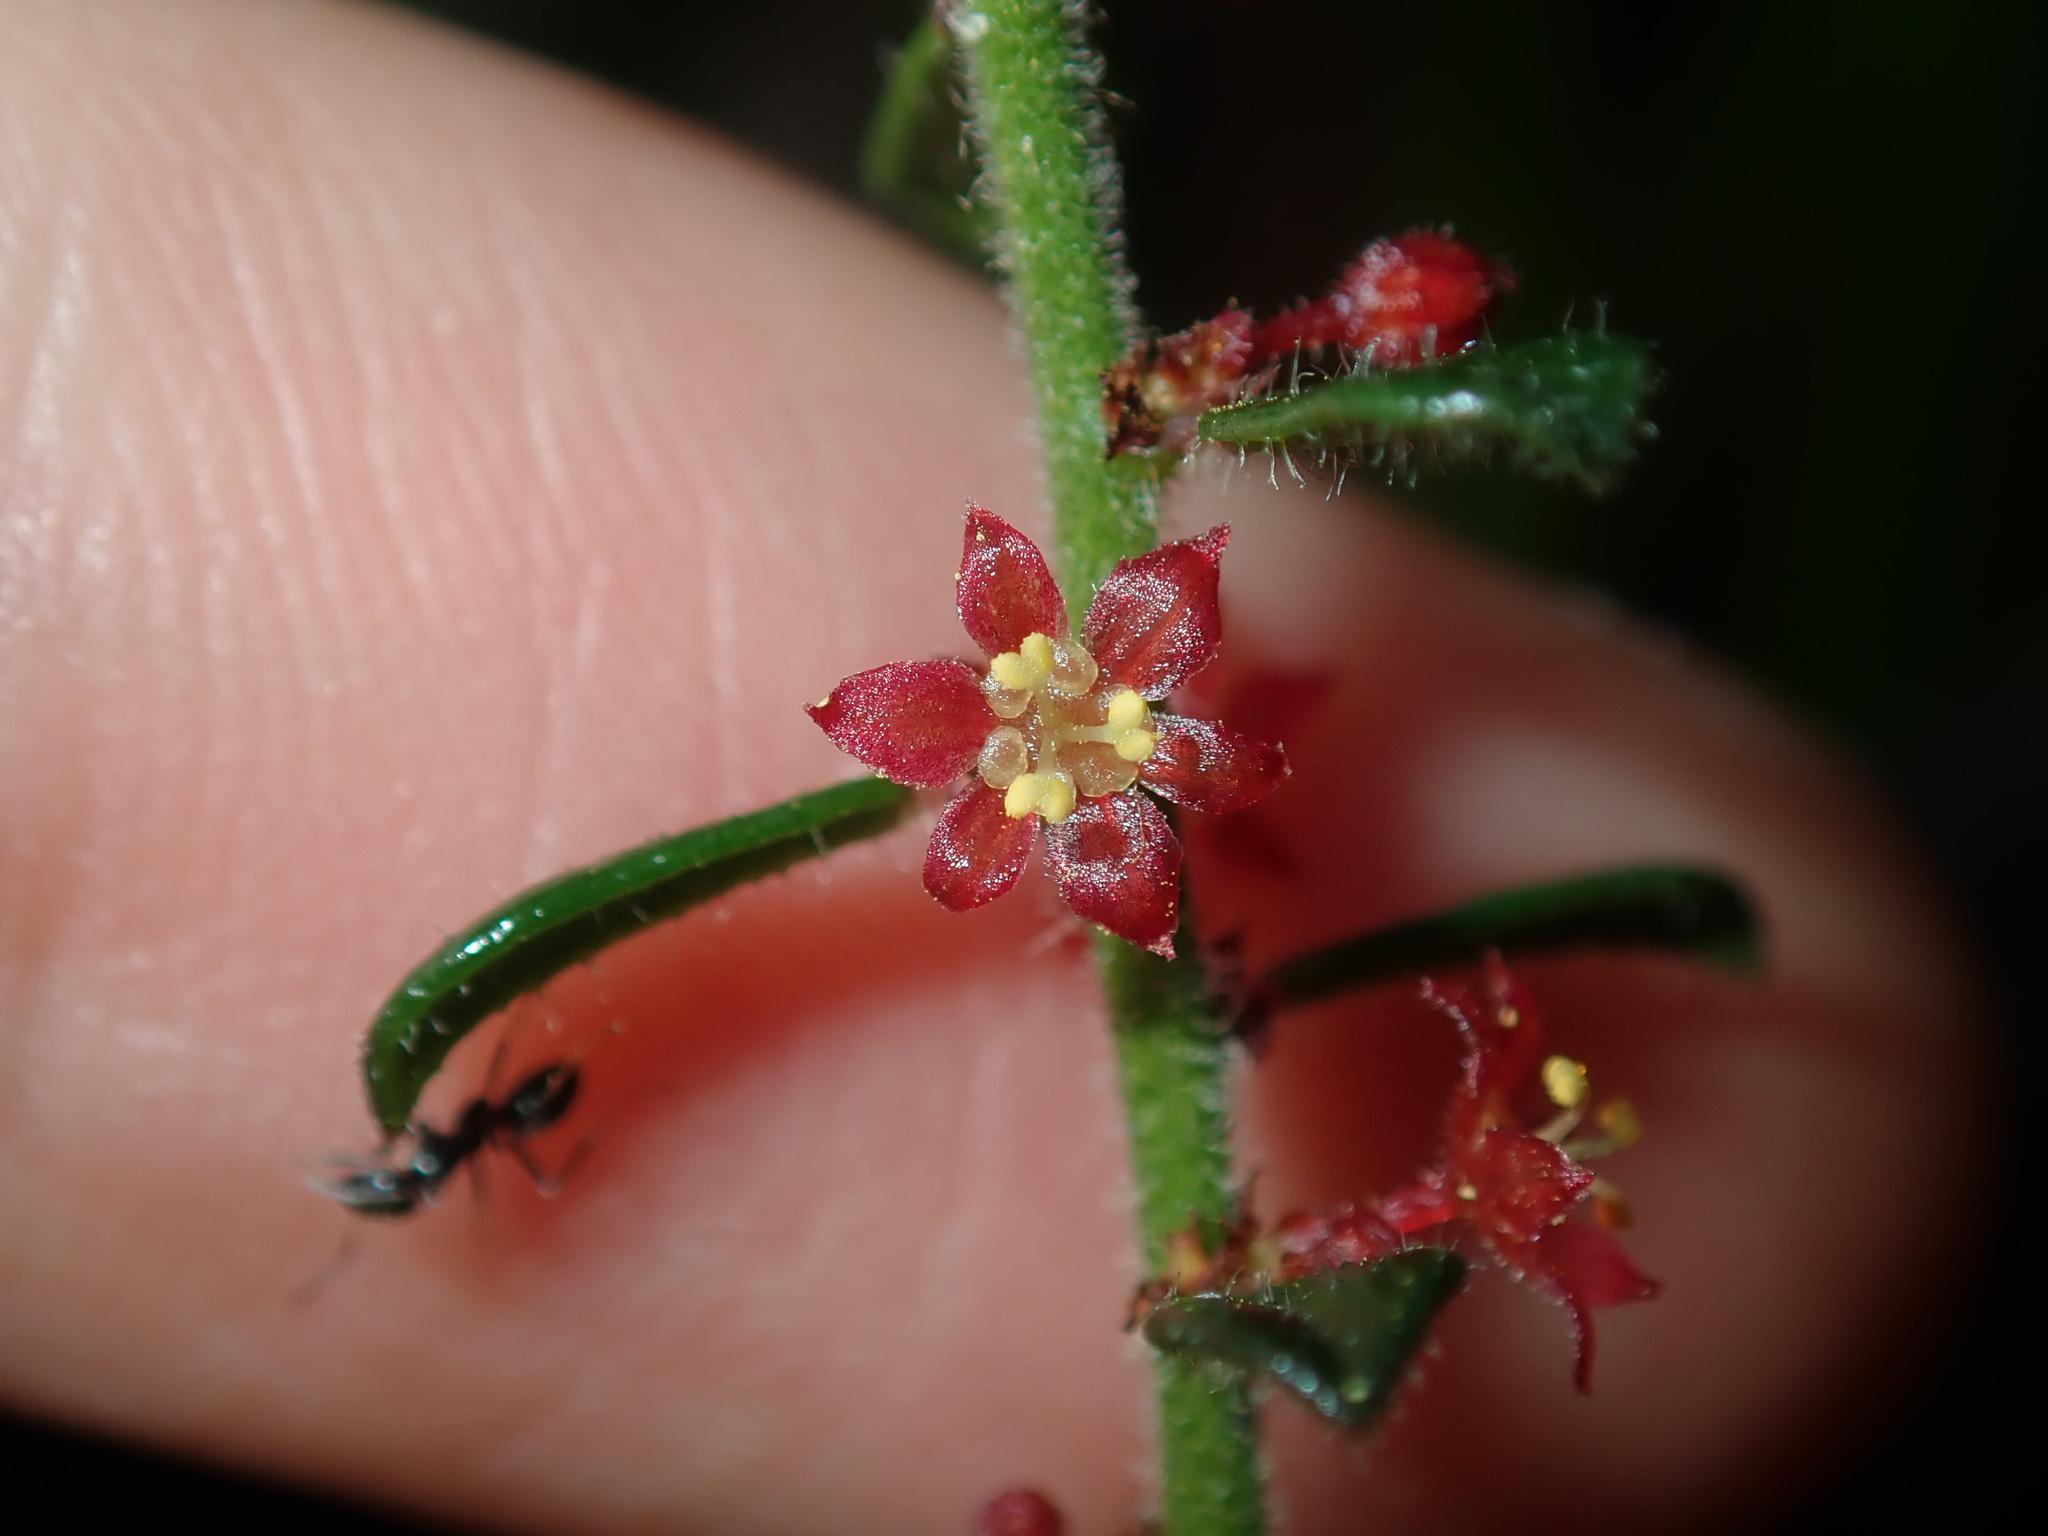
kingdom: Plantae
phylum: Tracheophyta
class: Magnoliopsida
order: Malpighiales
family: Phyllanthaceae
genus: Phyllanthus
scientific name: Phyllanthus hirtellus
